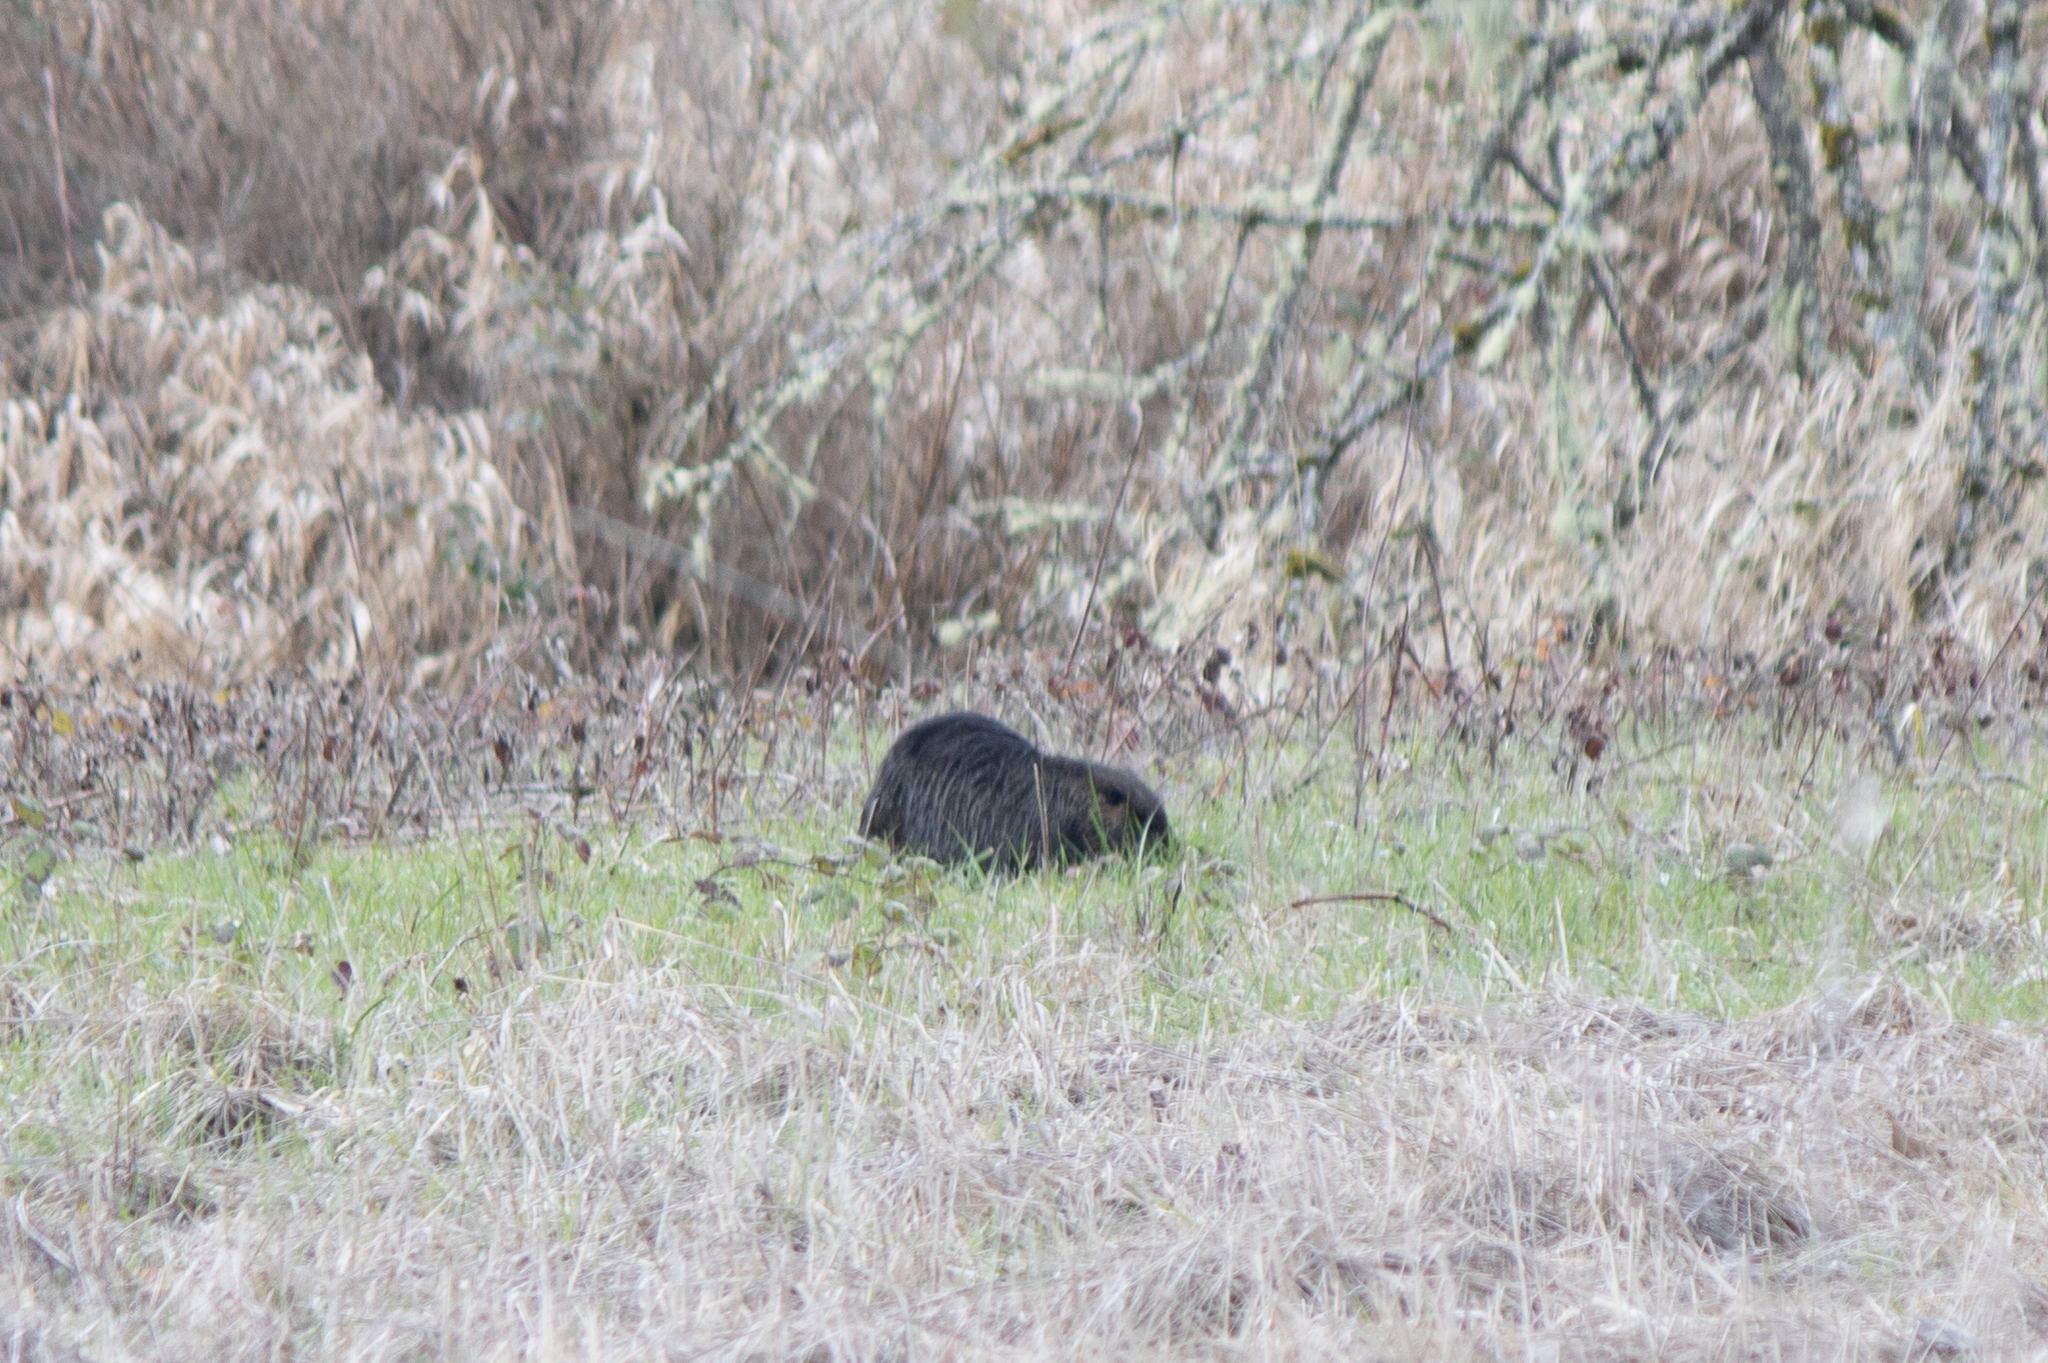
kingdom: Animalia
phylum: Chordata
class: Mammalia
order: Rodentia
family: Myocastoridae
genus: Myocastor
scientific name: Myocastor coypus
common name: Coypu
